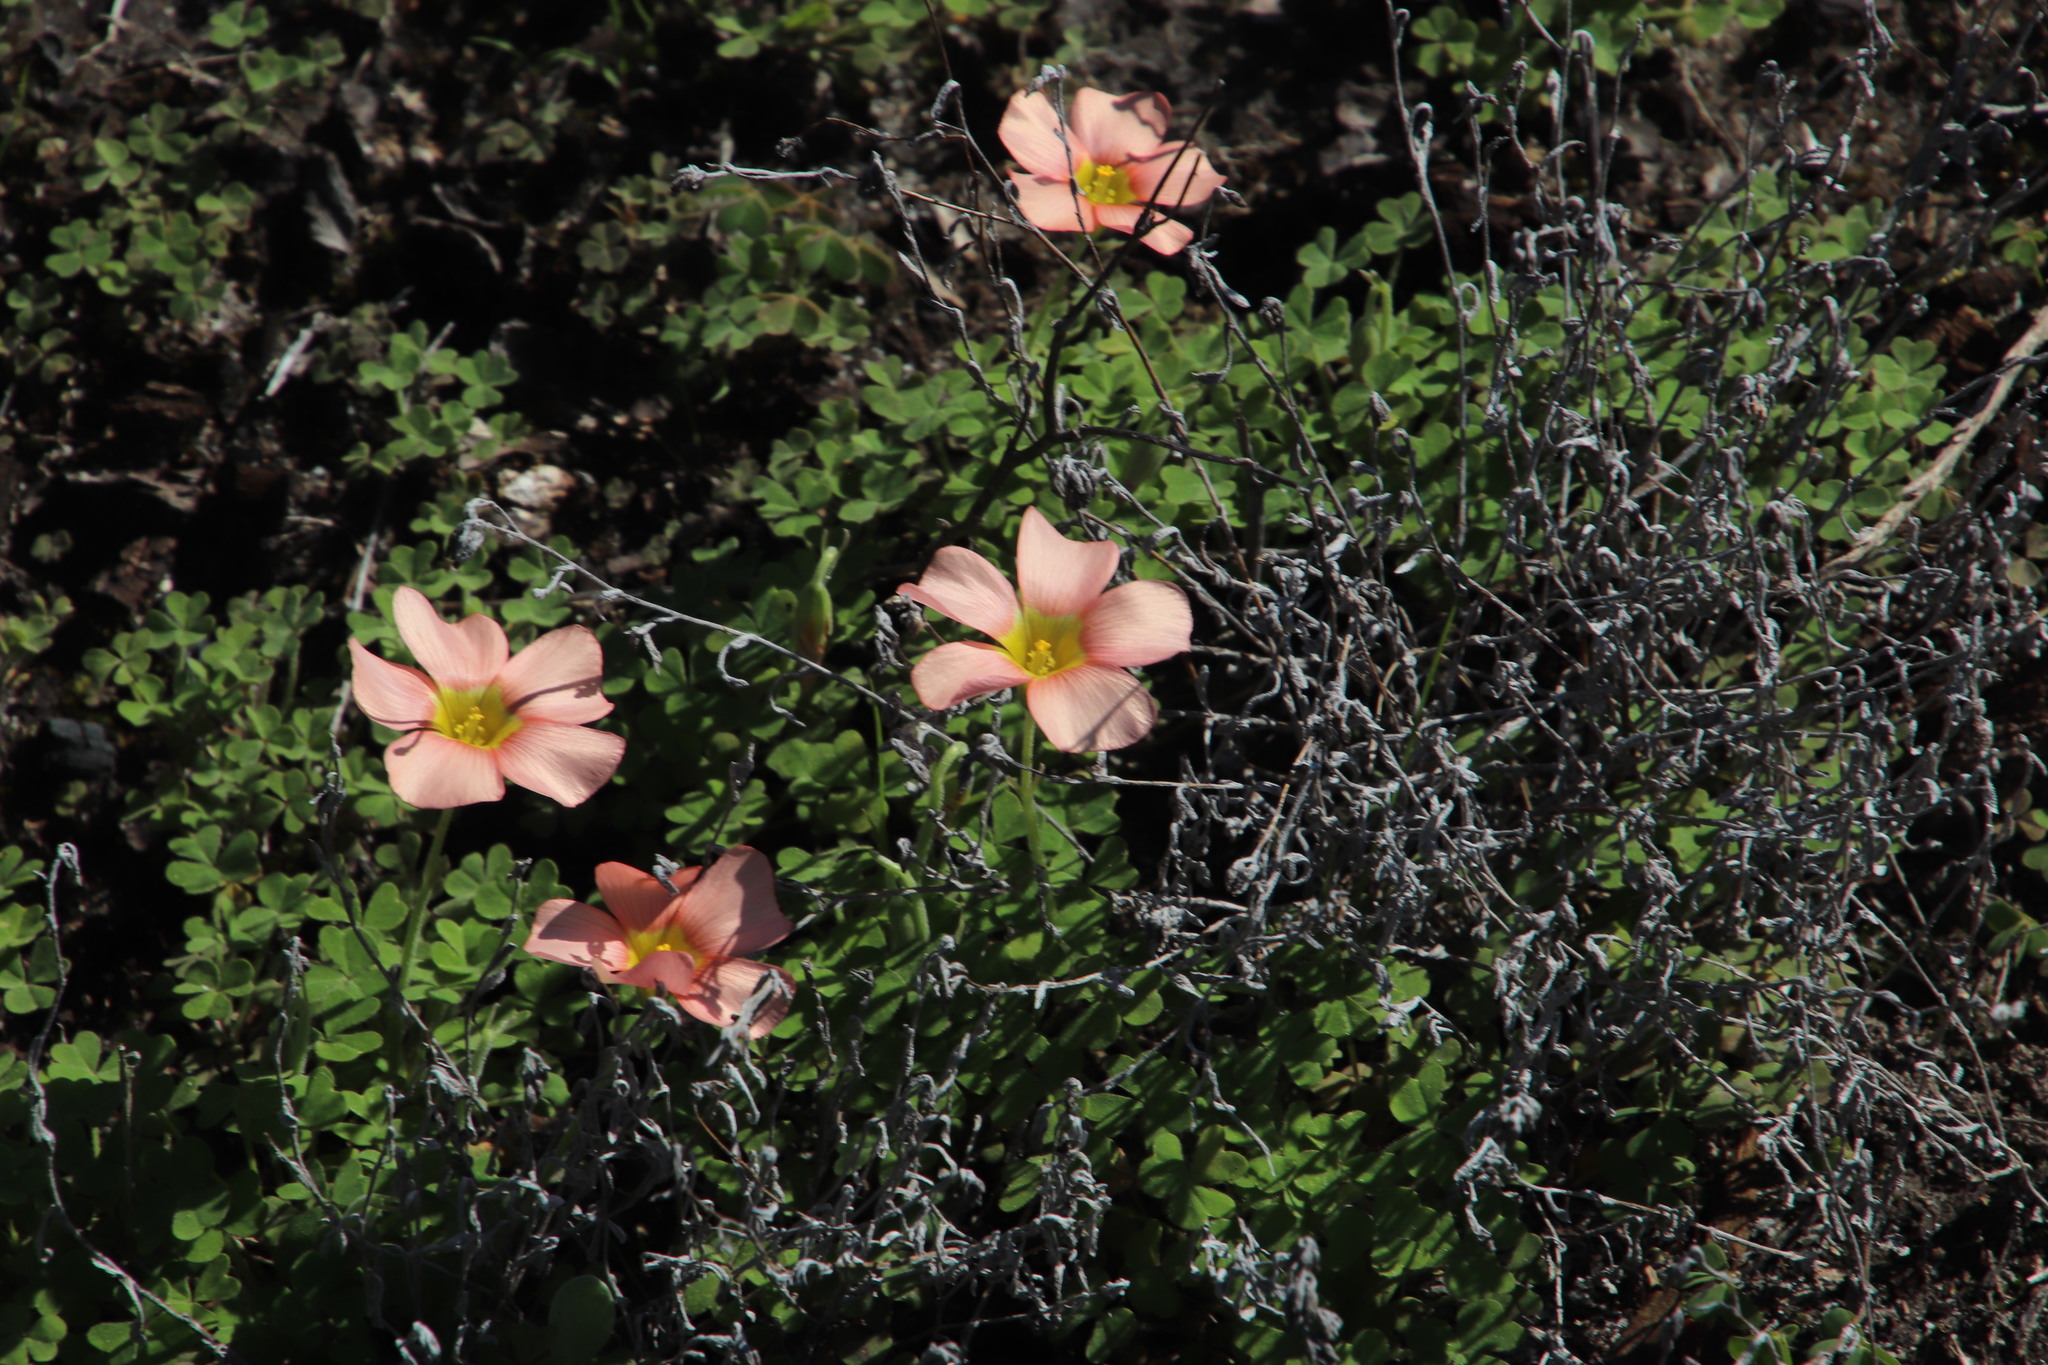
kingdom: Plantae
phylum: Tracheophyta
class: Magnoliopsida
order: Oxalidales
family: Oxalidaceae
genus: Oxalis
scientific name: Oxalis obtusa
